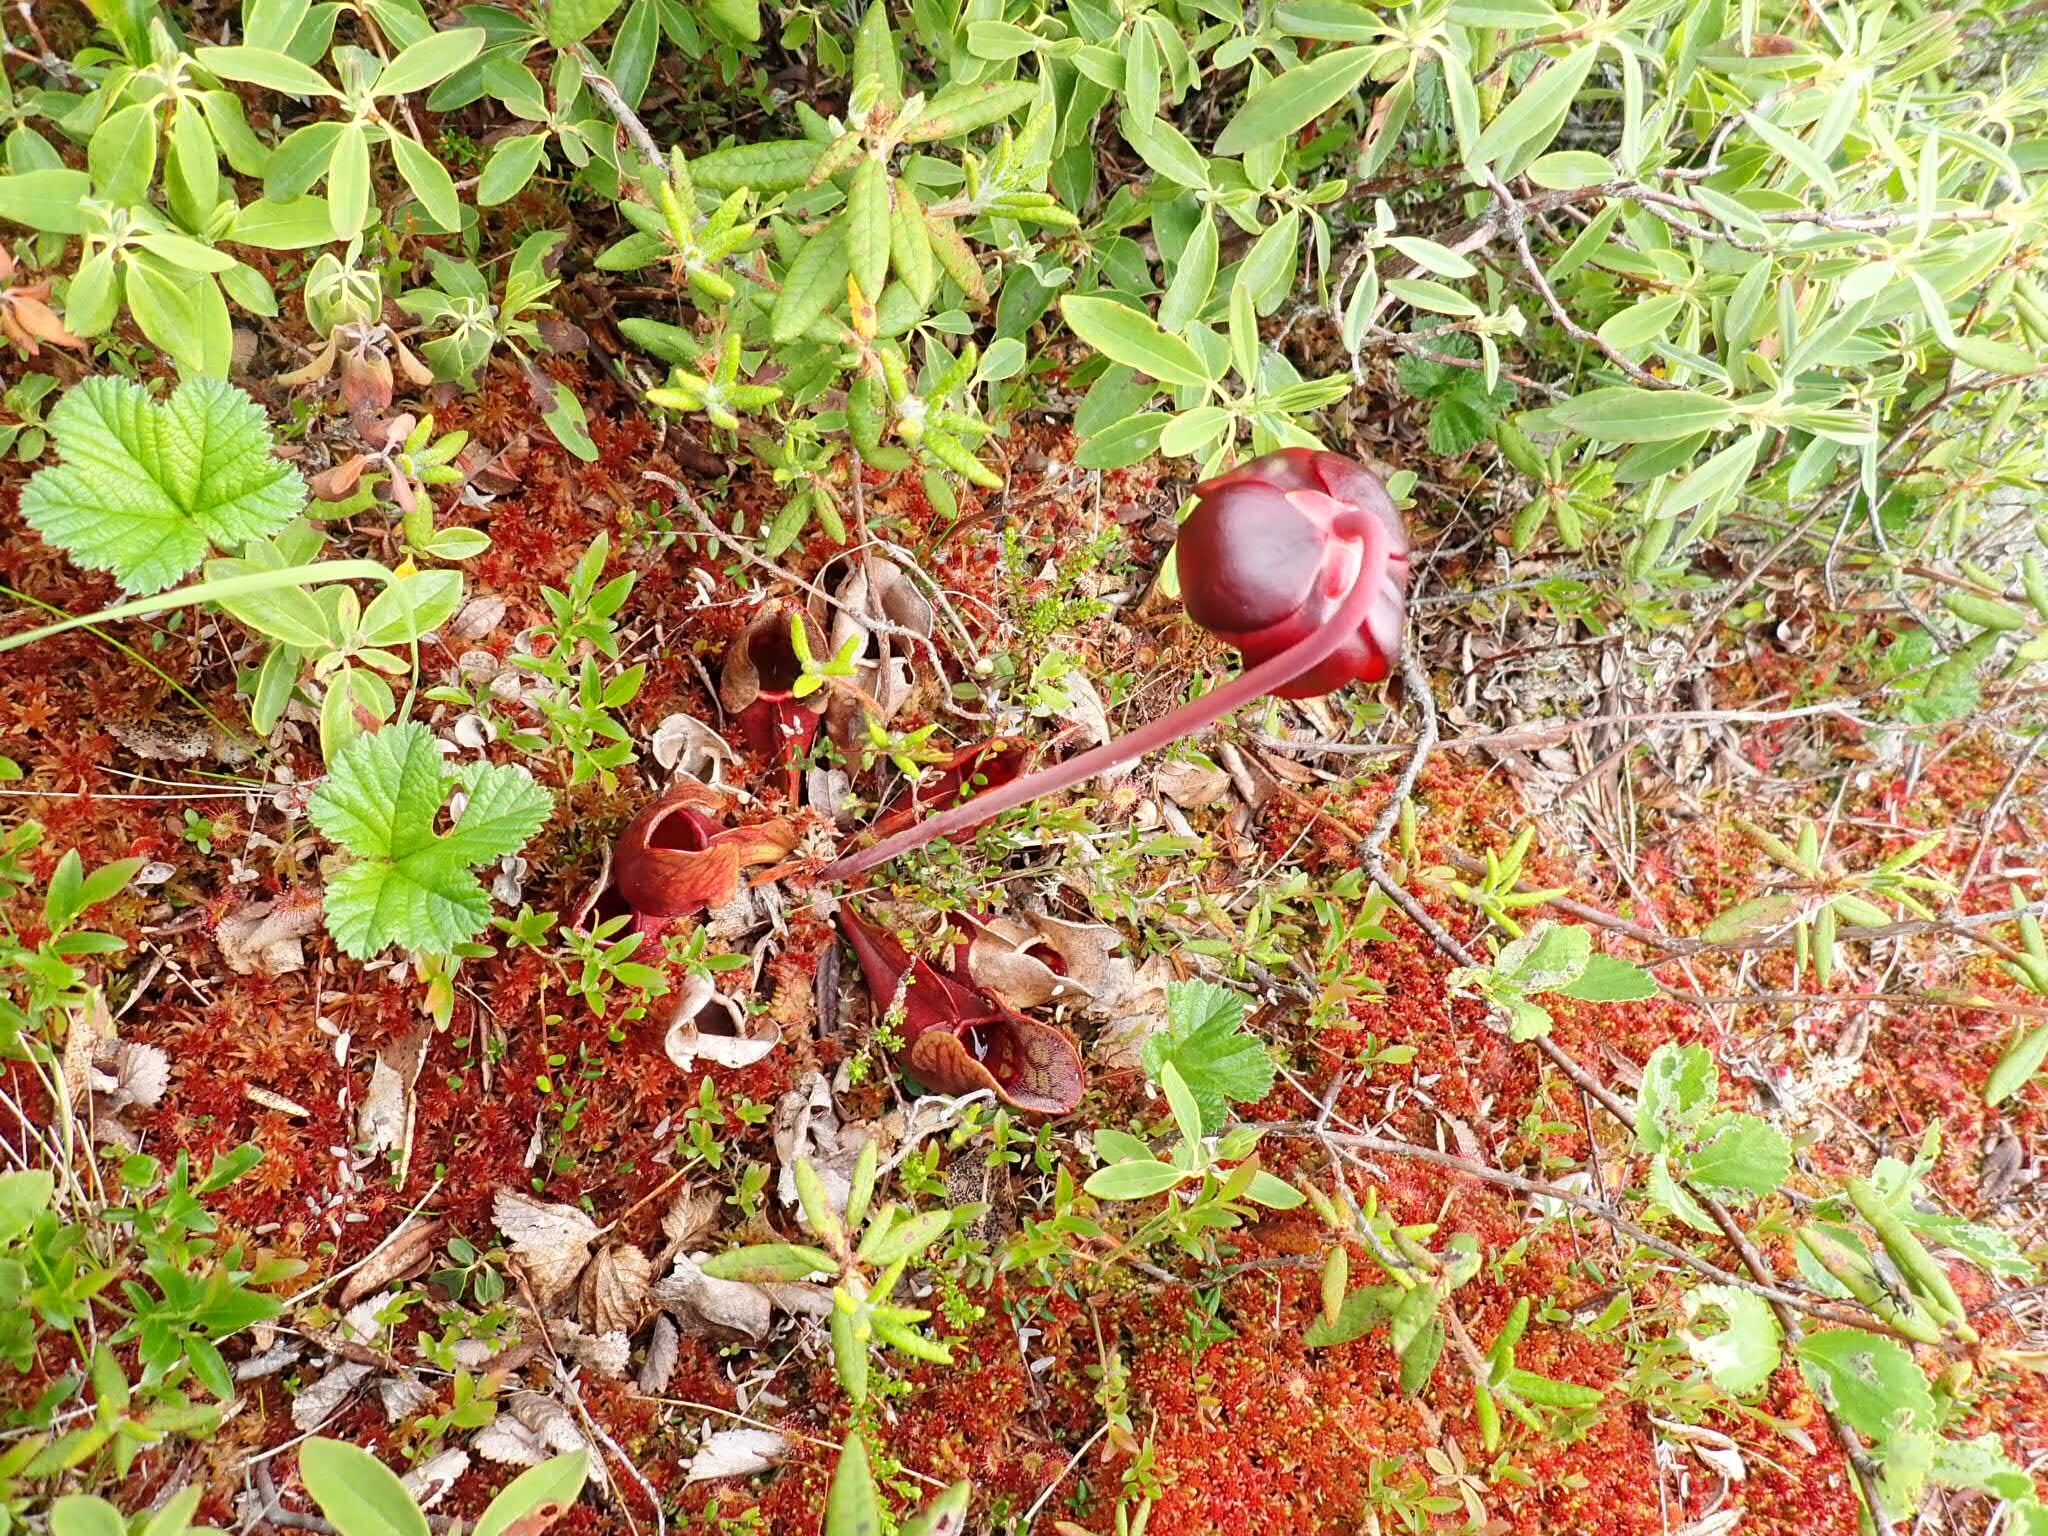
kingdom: Plantae
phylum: Tracheophyta
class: Magnoliopsida
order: Ericales
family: Sarraceniaceae
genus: Sarracenia
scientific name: Sarracenia purpurea
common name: Pitcherplant
